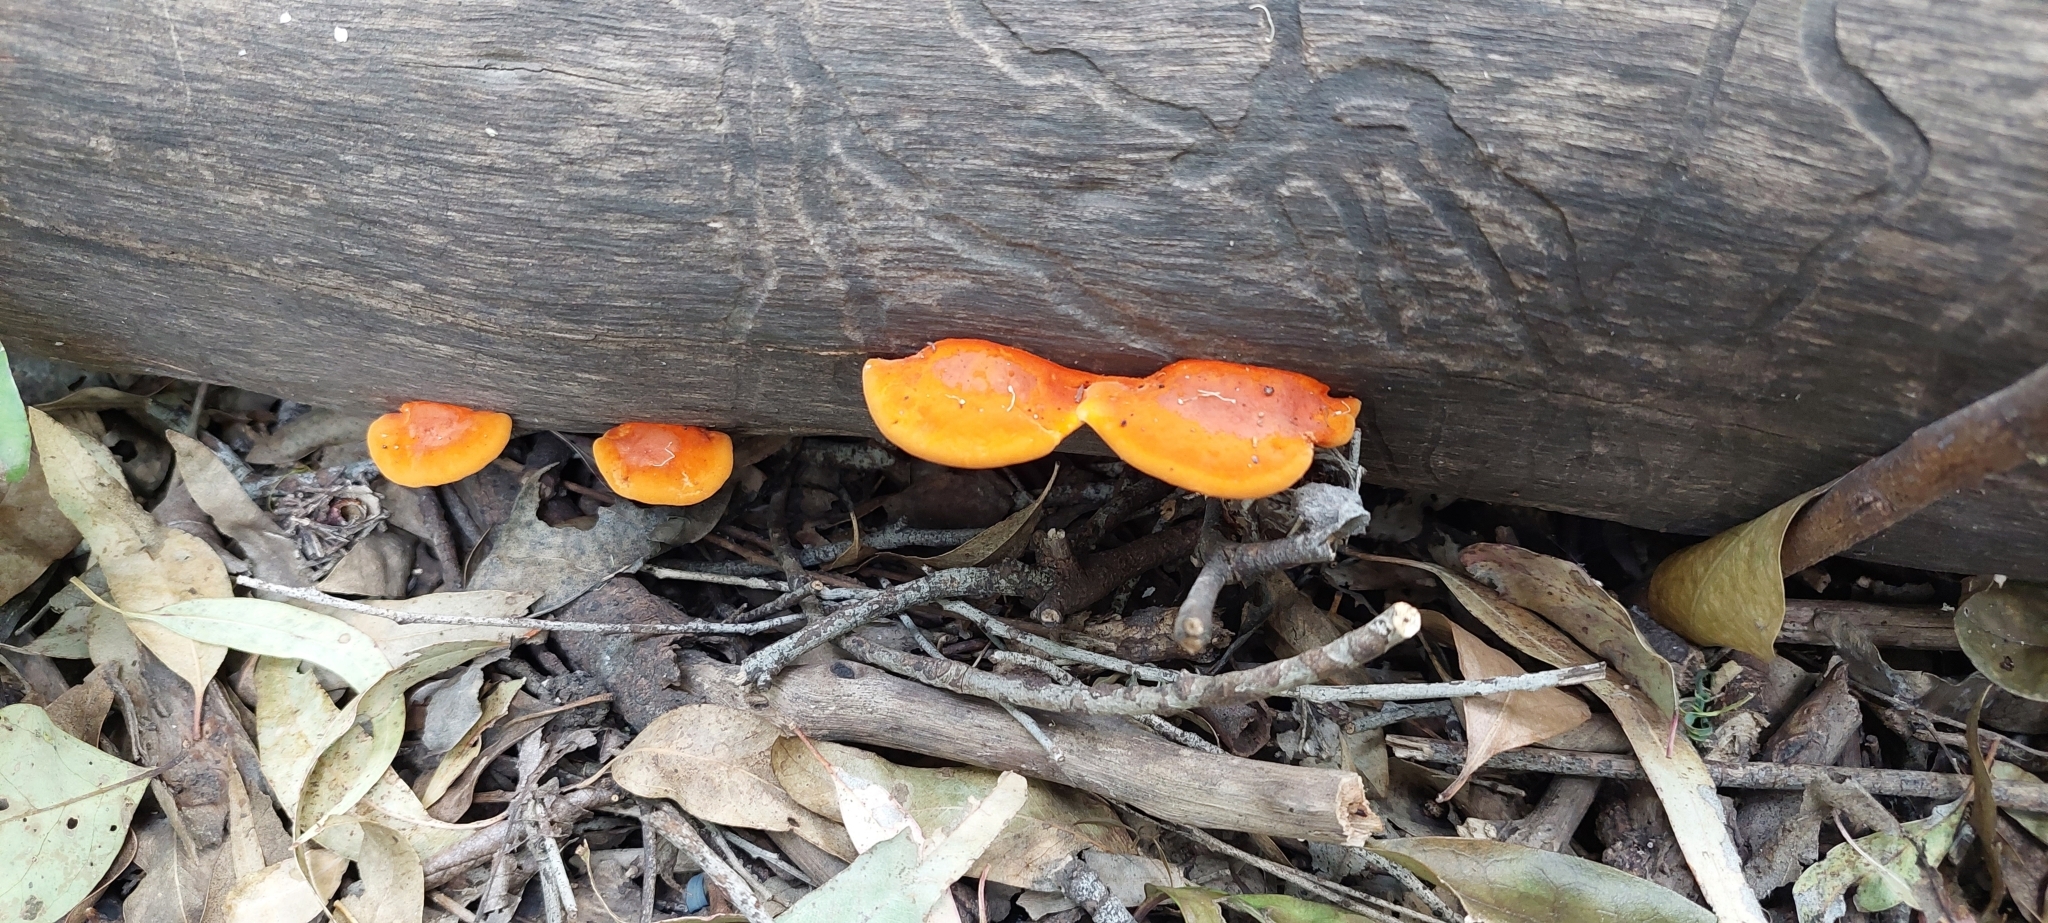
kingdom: Fungi
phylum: Basidiomycota
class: Agaricomycetes
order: Polyporales
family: Polyporaceae
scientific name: Polyporaceae
